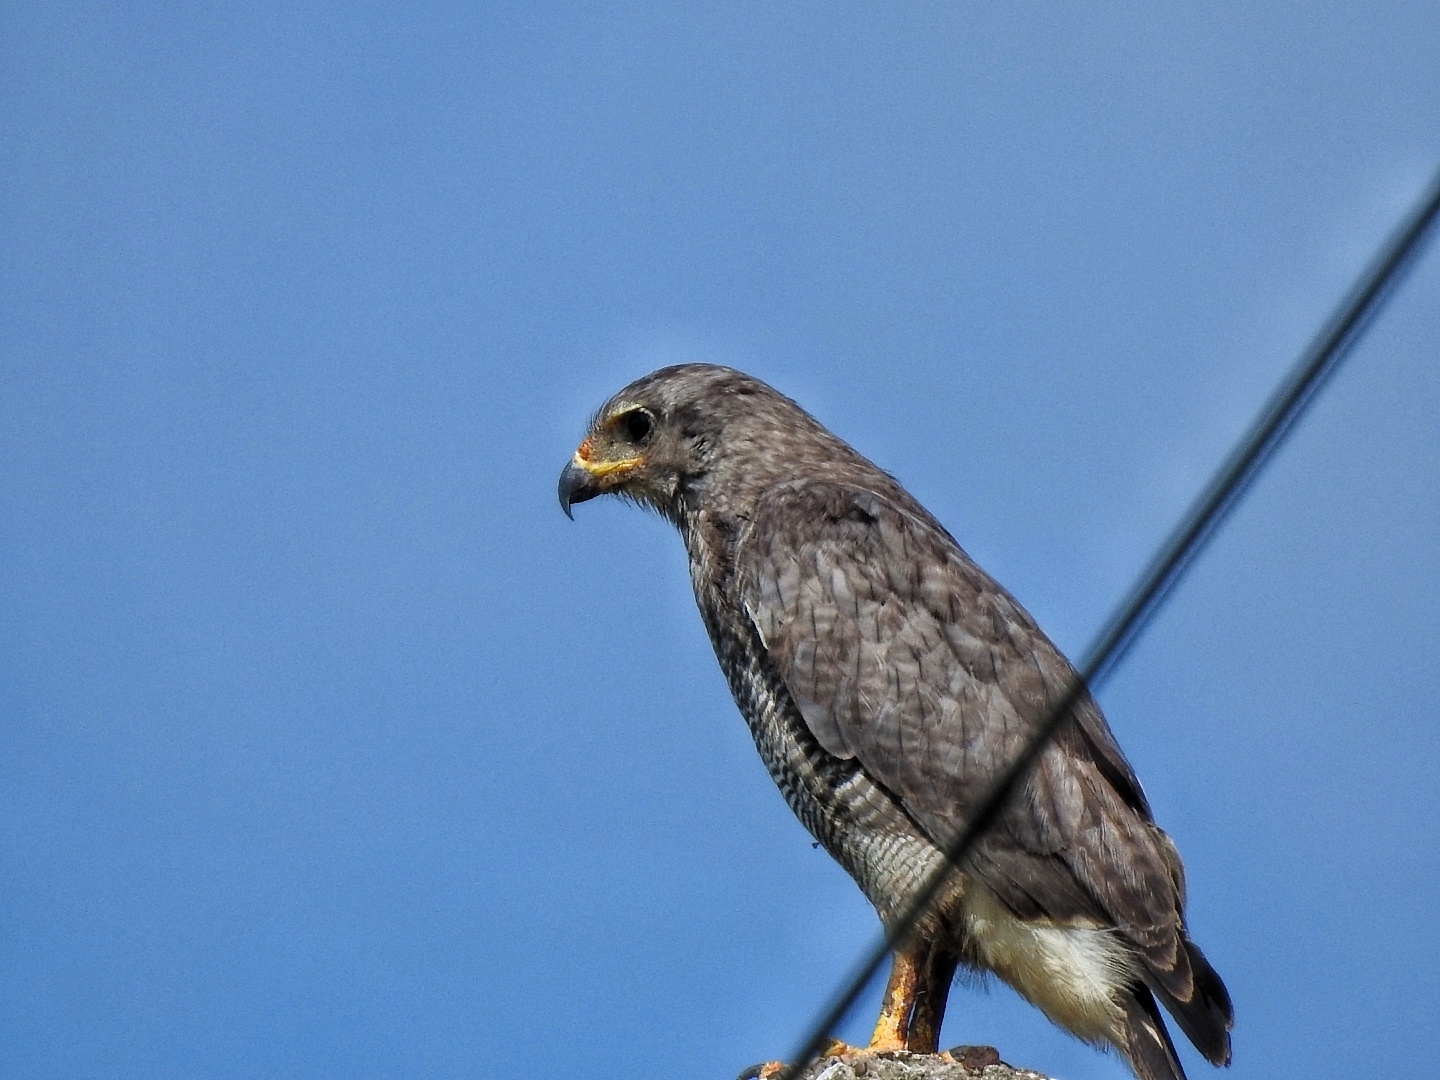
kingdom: Animalia
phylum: Chordata
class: Aves
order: Accipitriformes
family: Accipitridae
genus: Buteo
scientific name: Buteo nitidus
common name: Grey-lined hawk
